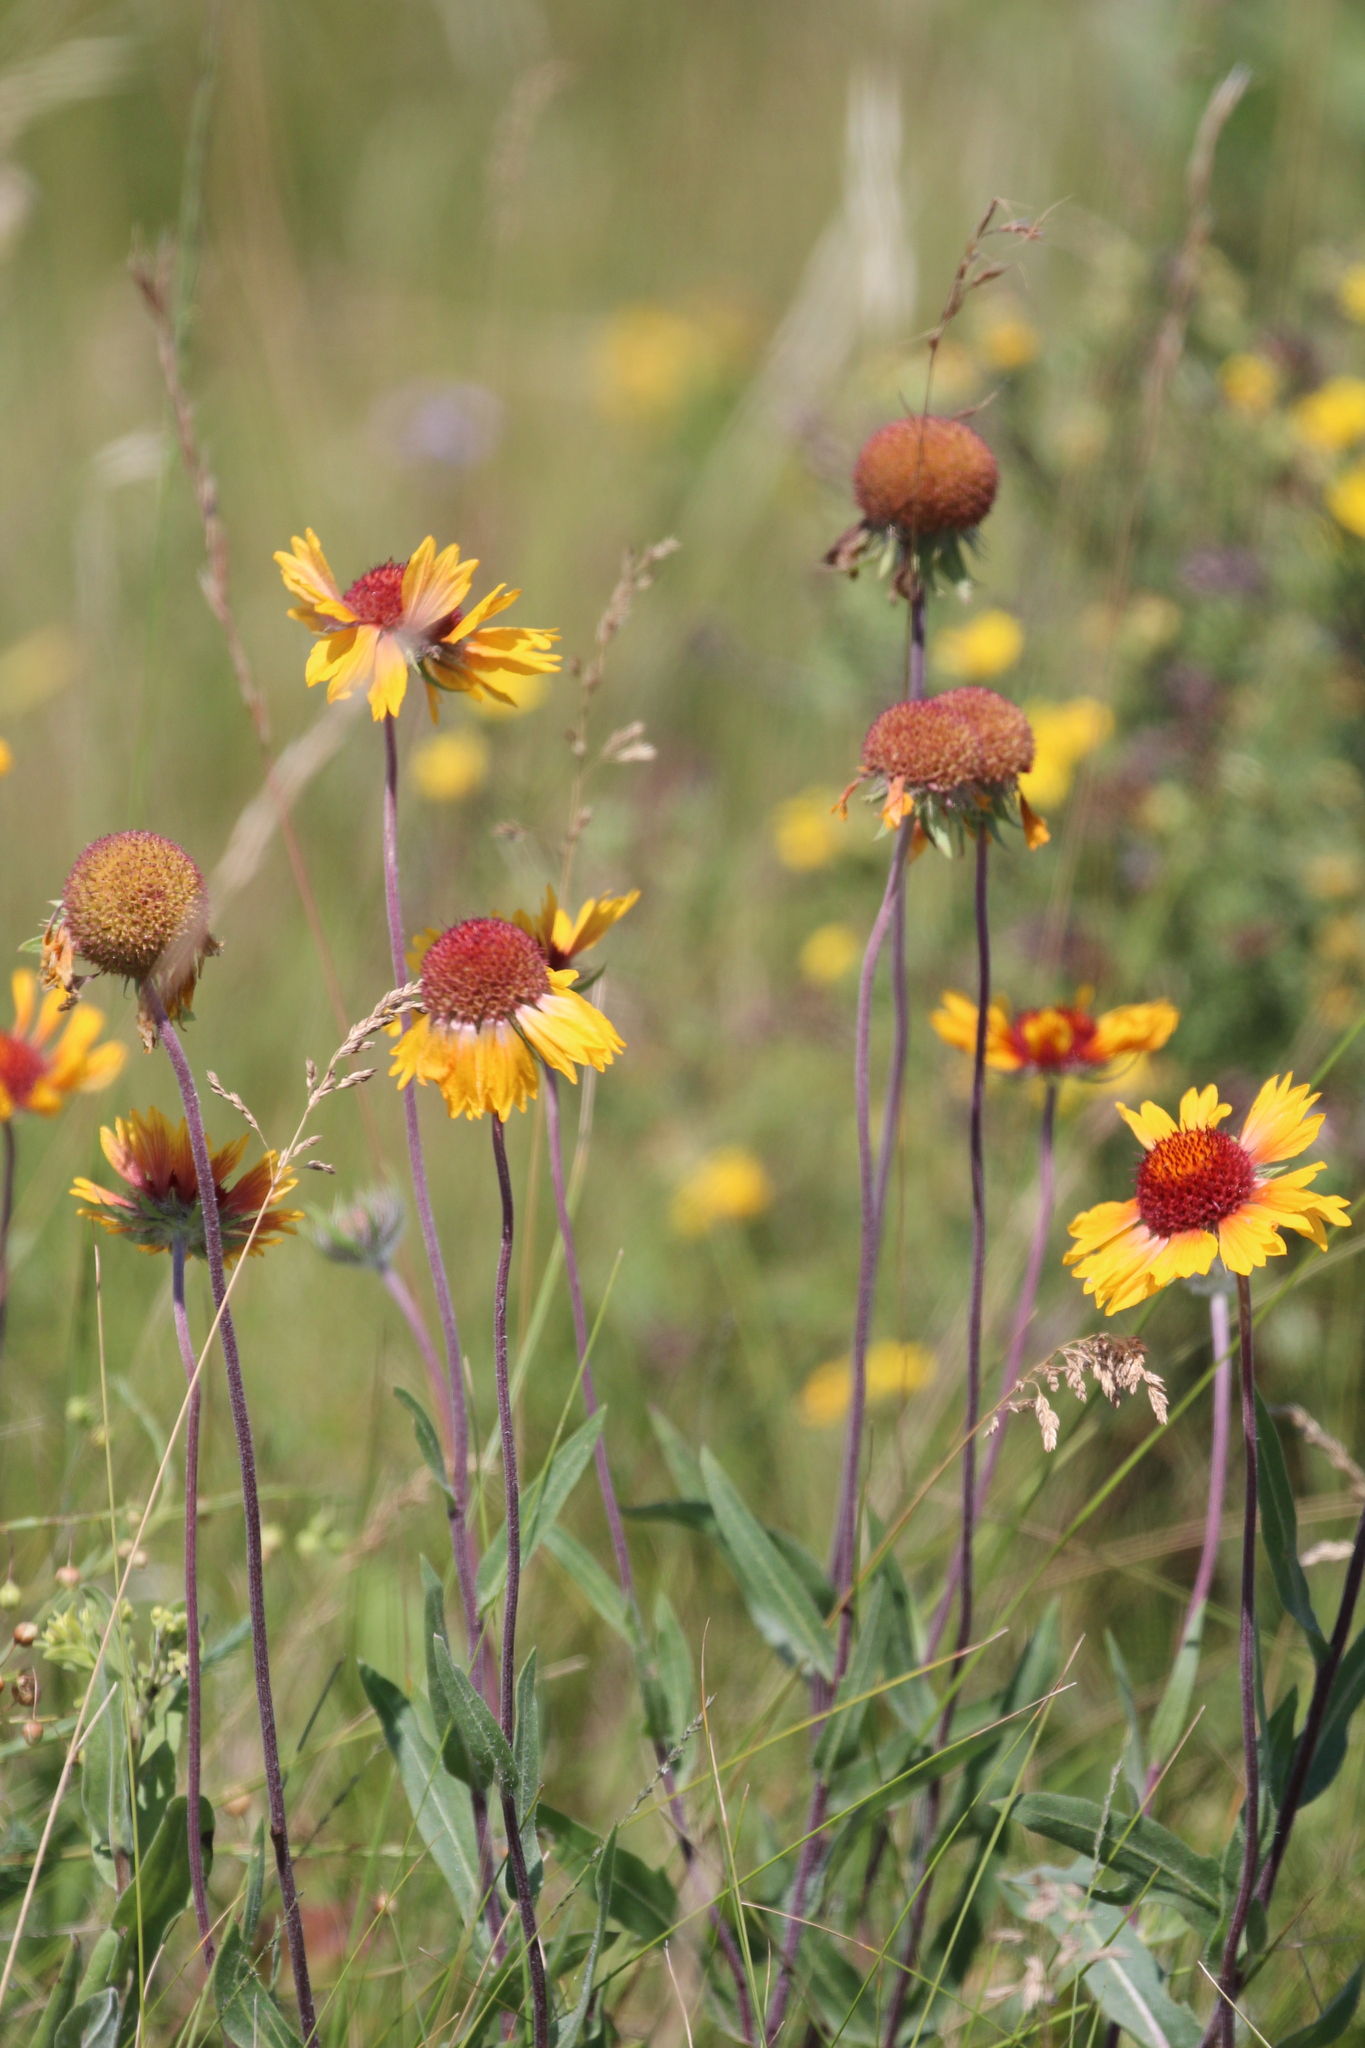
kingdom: Plantae
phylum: Tracheophyta
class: Magnoliopsida
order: Asterales
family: Asteraceae
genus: Gaillardia
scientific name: Gaillardia aristata
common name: Blanket-flower
